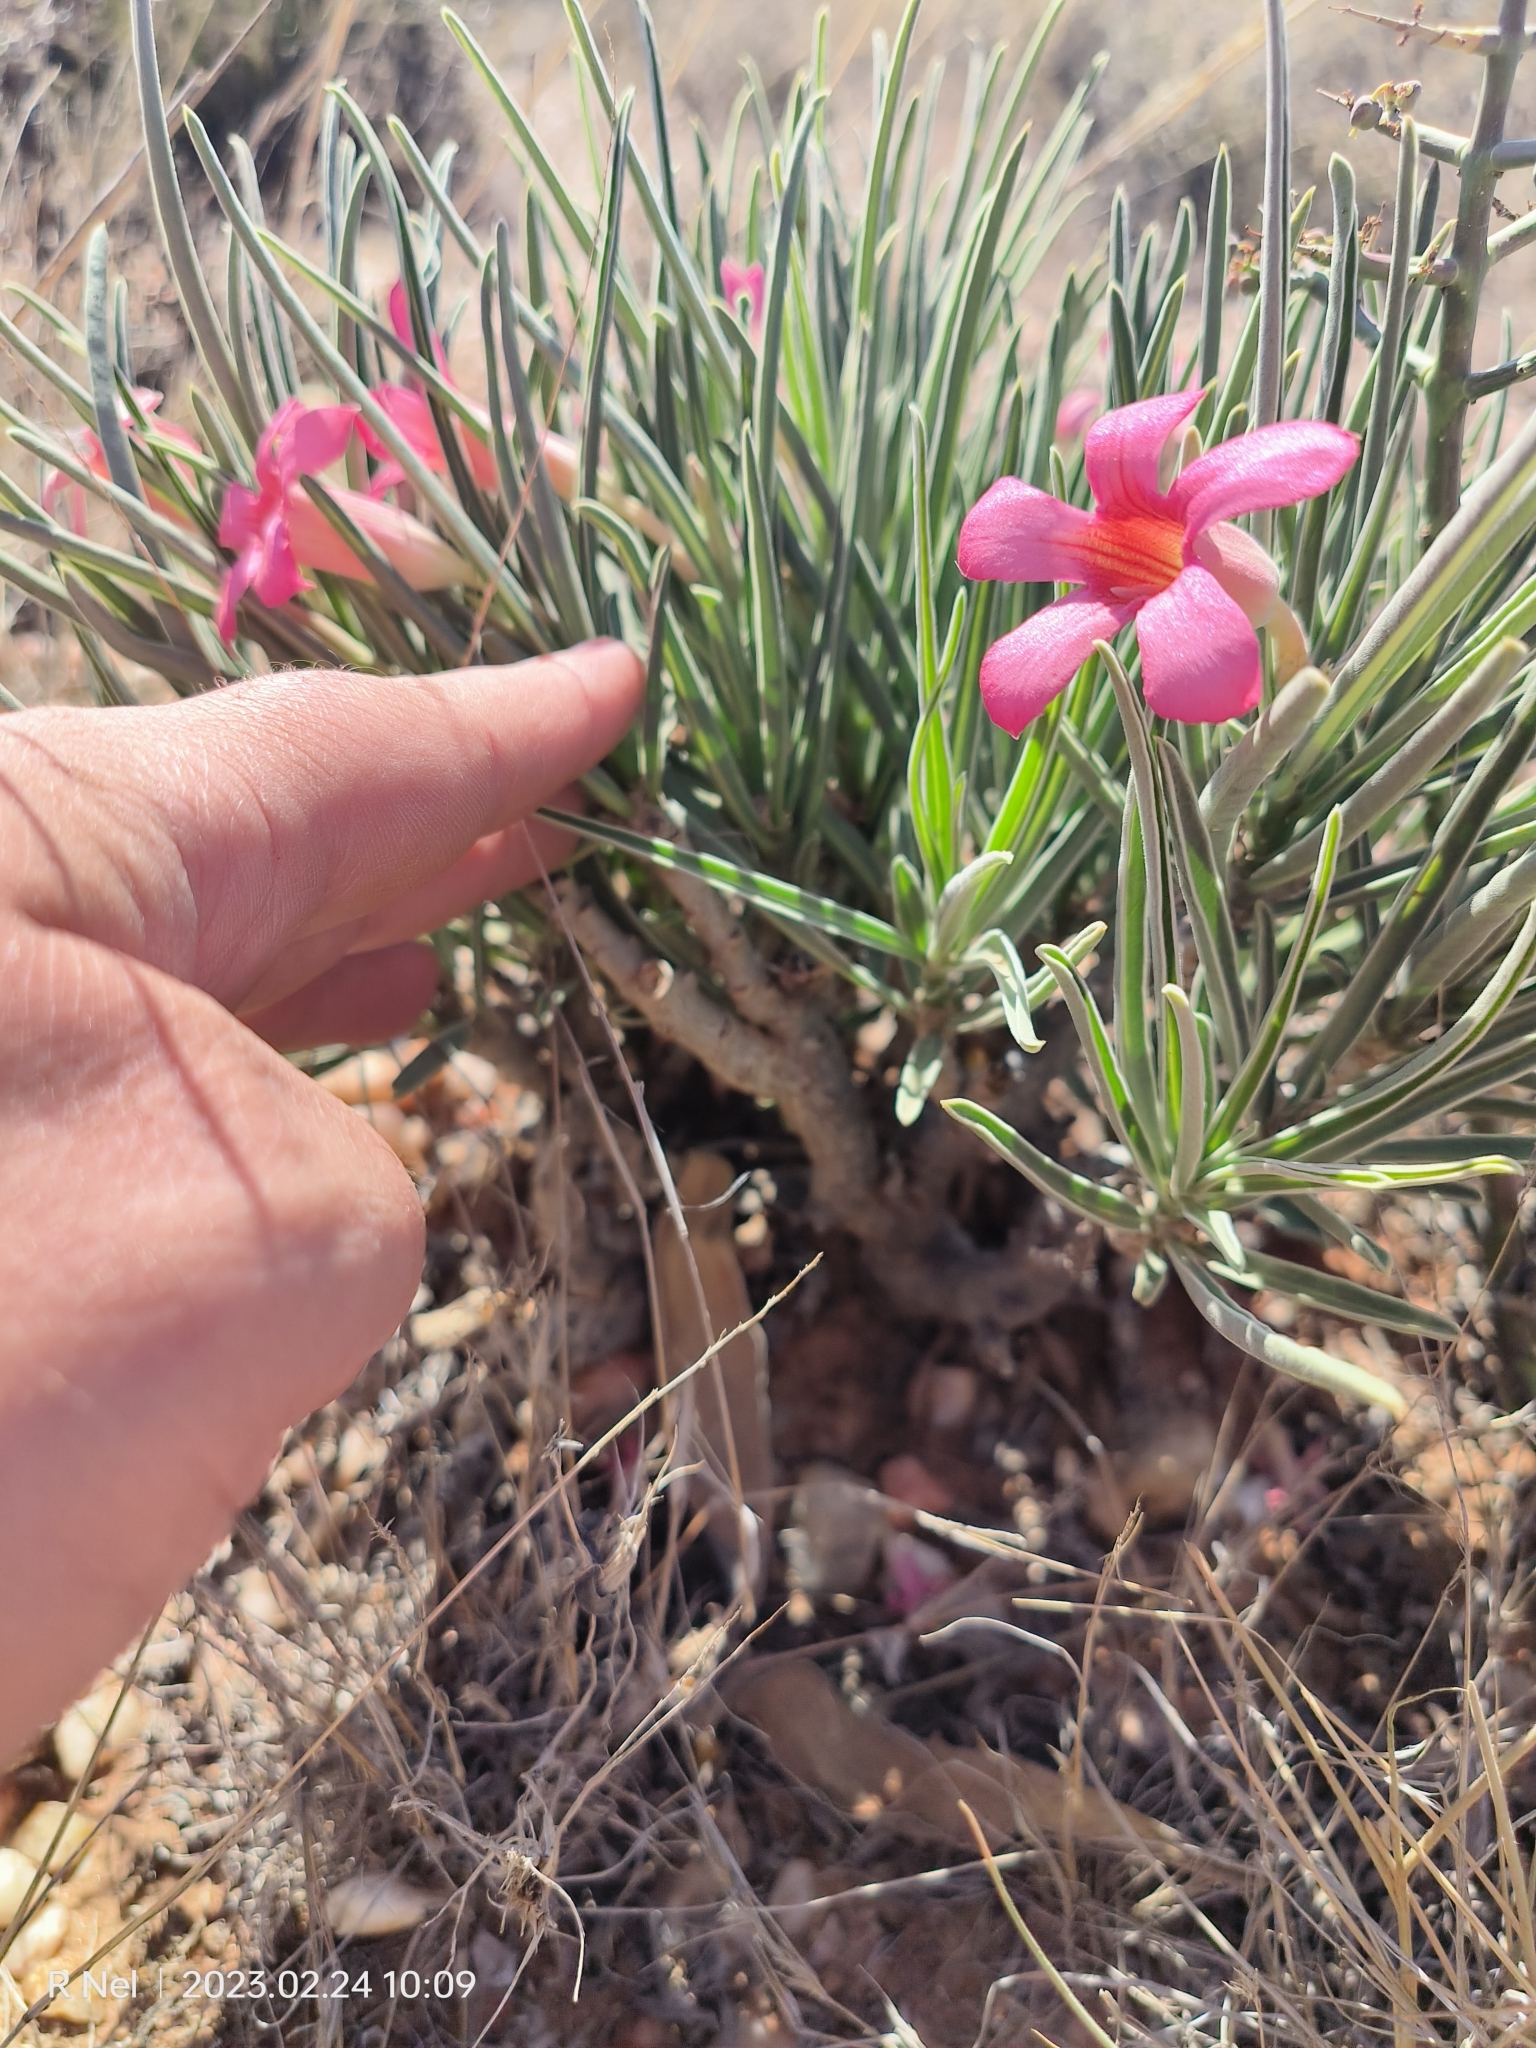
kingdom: Plantae
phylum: Tracheophyta
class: Magnoliopsida
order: Gentianales
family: Apocynaceae
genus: Adenium
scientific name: Adenium obesum
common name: Desert-rose
